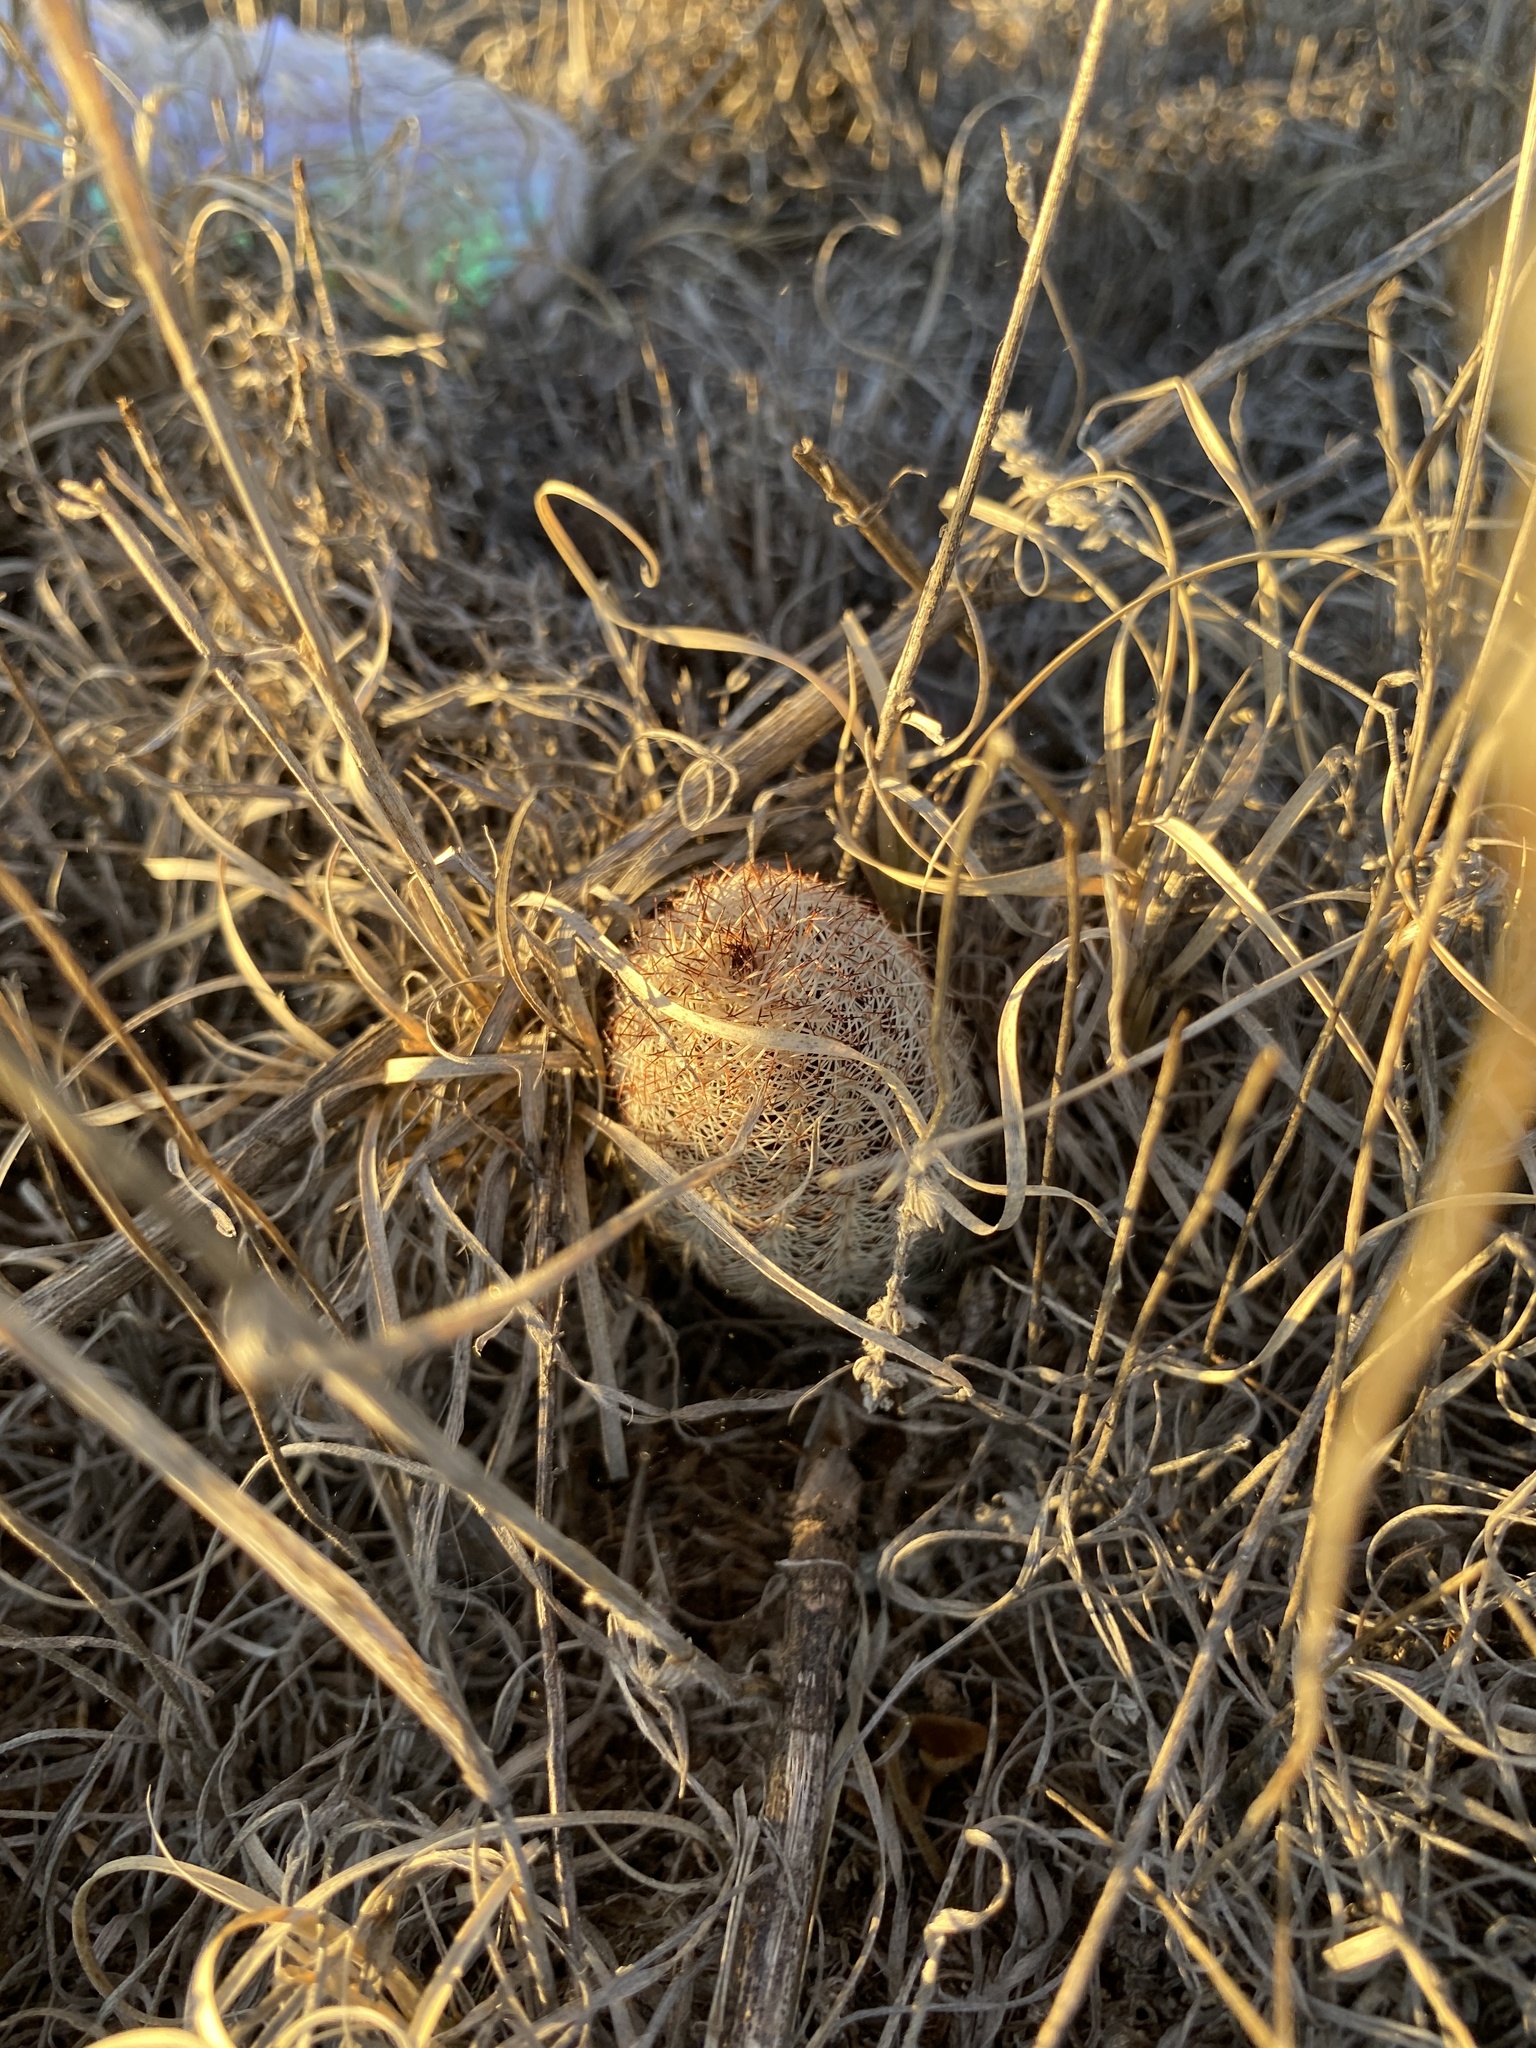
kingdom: Plantae
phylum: Tracheophyta
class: Magnoliopsida
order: Caryophyllales
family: Cactaceae
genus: Echinocereus
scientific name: Echinocereus reichenbachii
